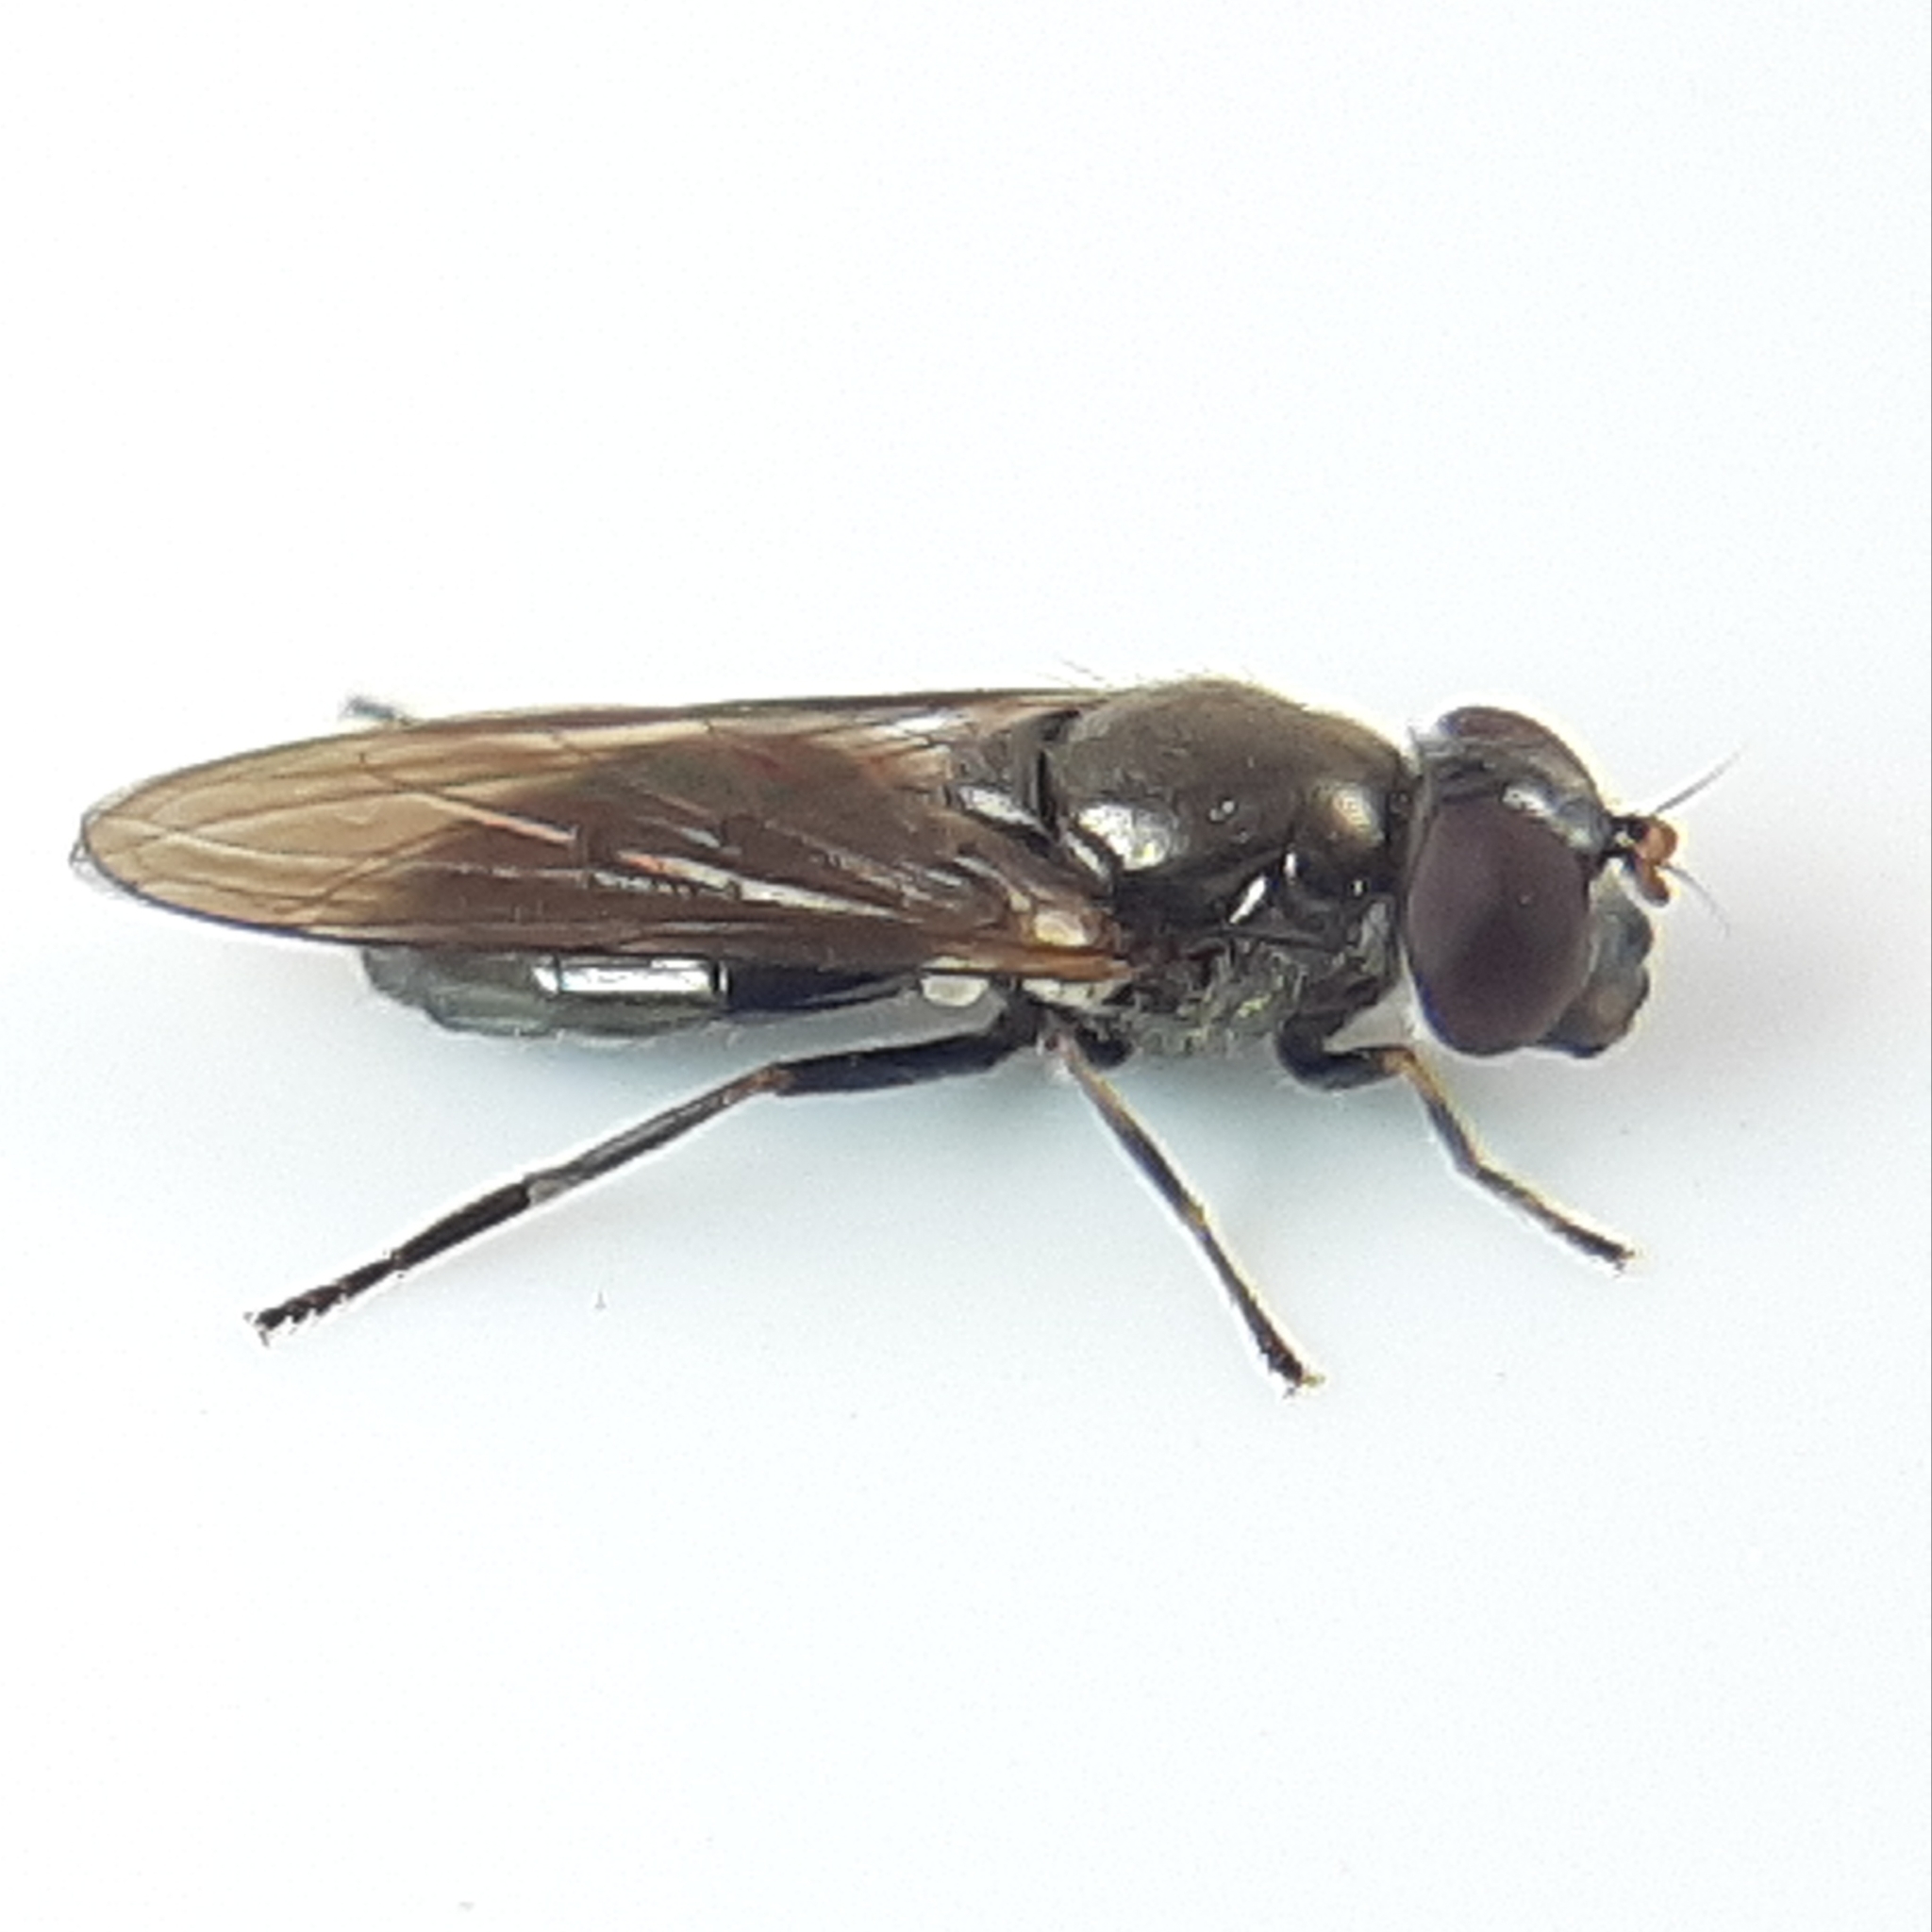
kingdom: Animalia
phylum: Arthropoda
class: Insecta
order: Diptera
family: Syrphidae
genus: Cheilosia
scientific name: Cheilosia
